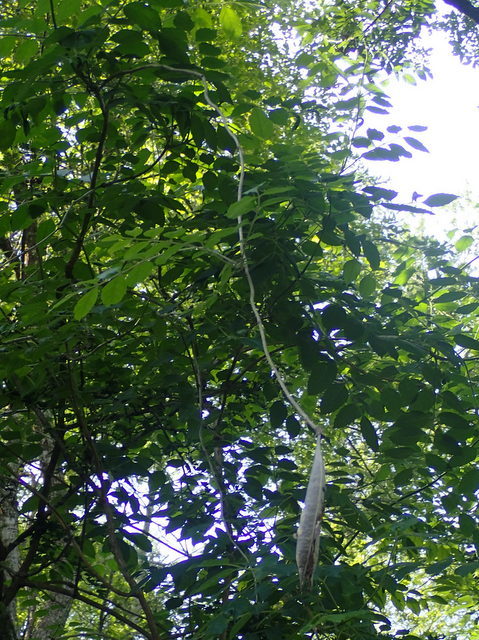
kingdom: Plantae
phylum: Tracheophyta
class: Magnoliopsida
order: Lamiales
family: Bignoniaceae
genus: Campsis
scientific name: Campsis radicans
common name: Trumpet-creeper
